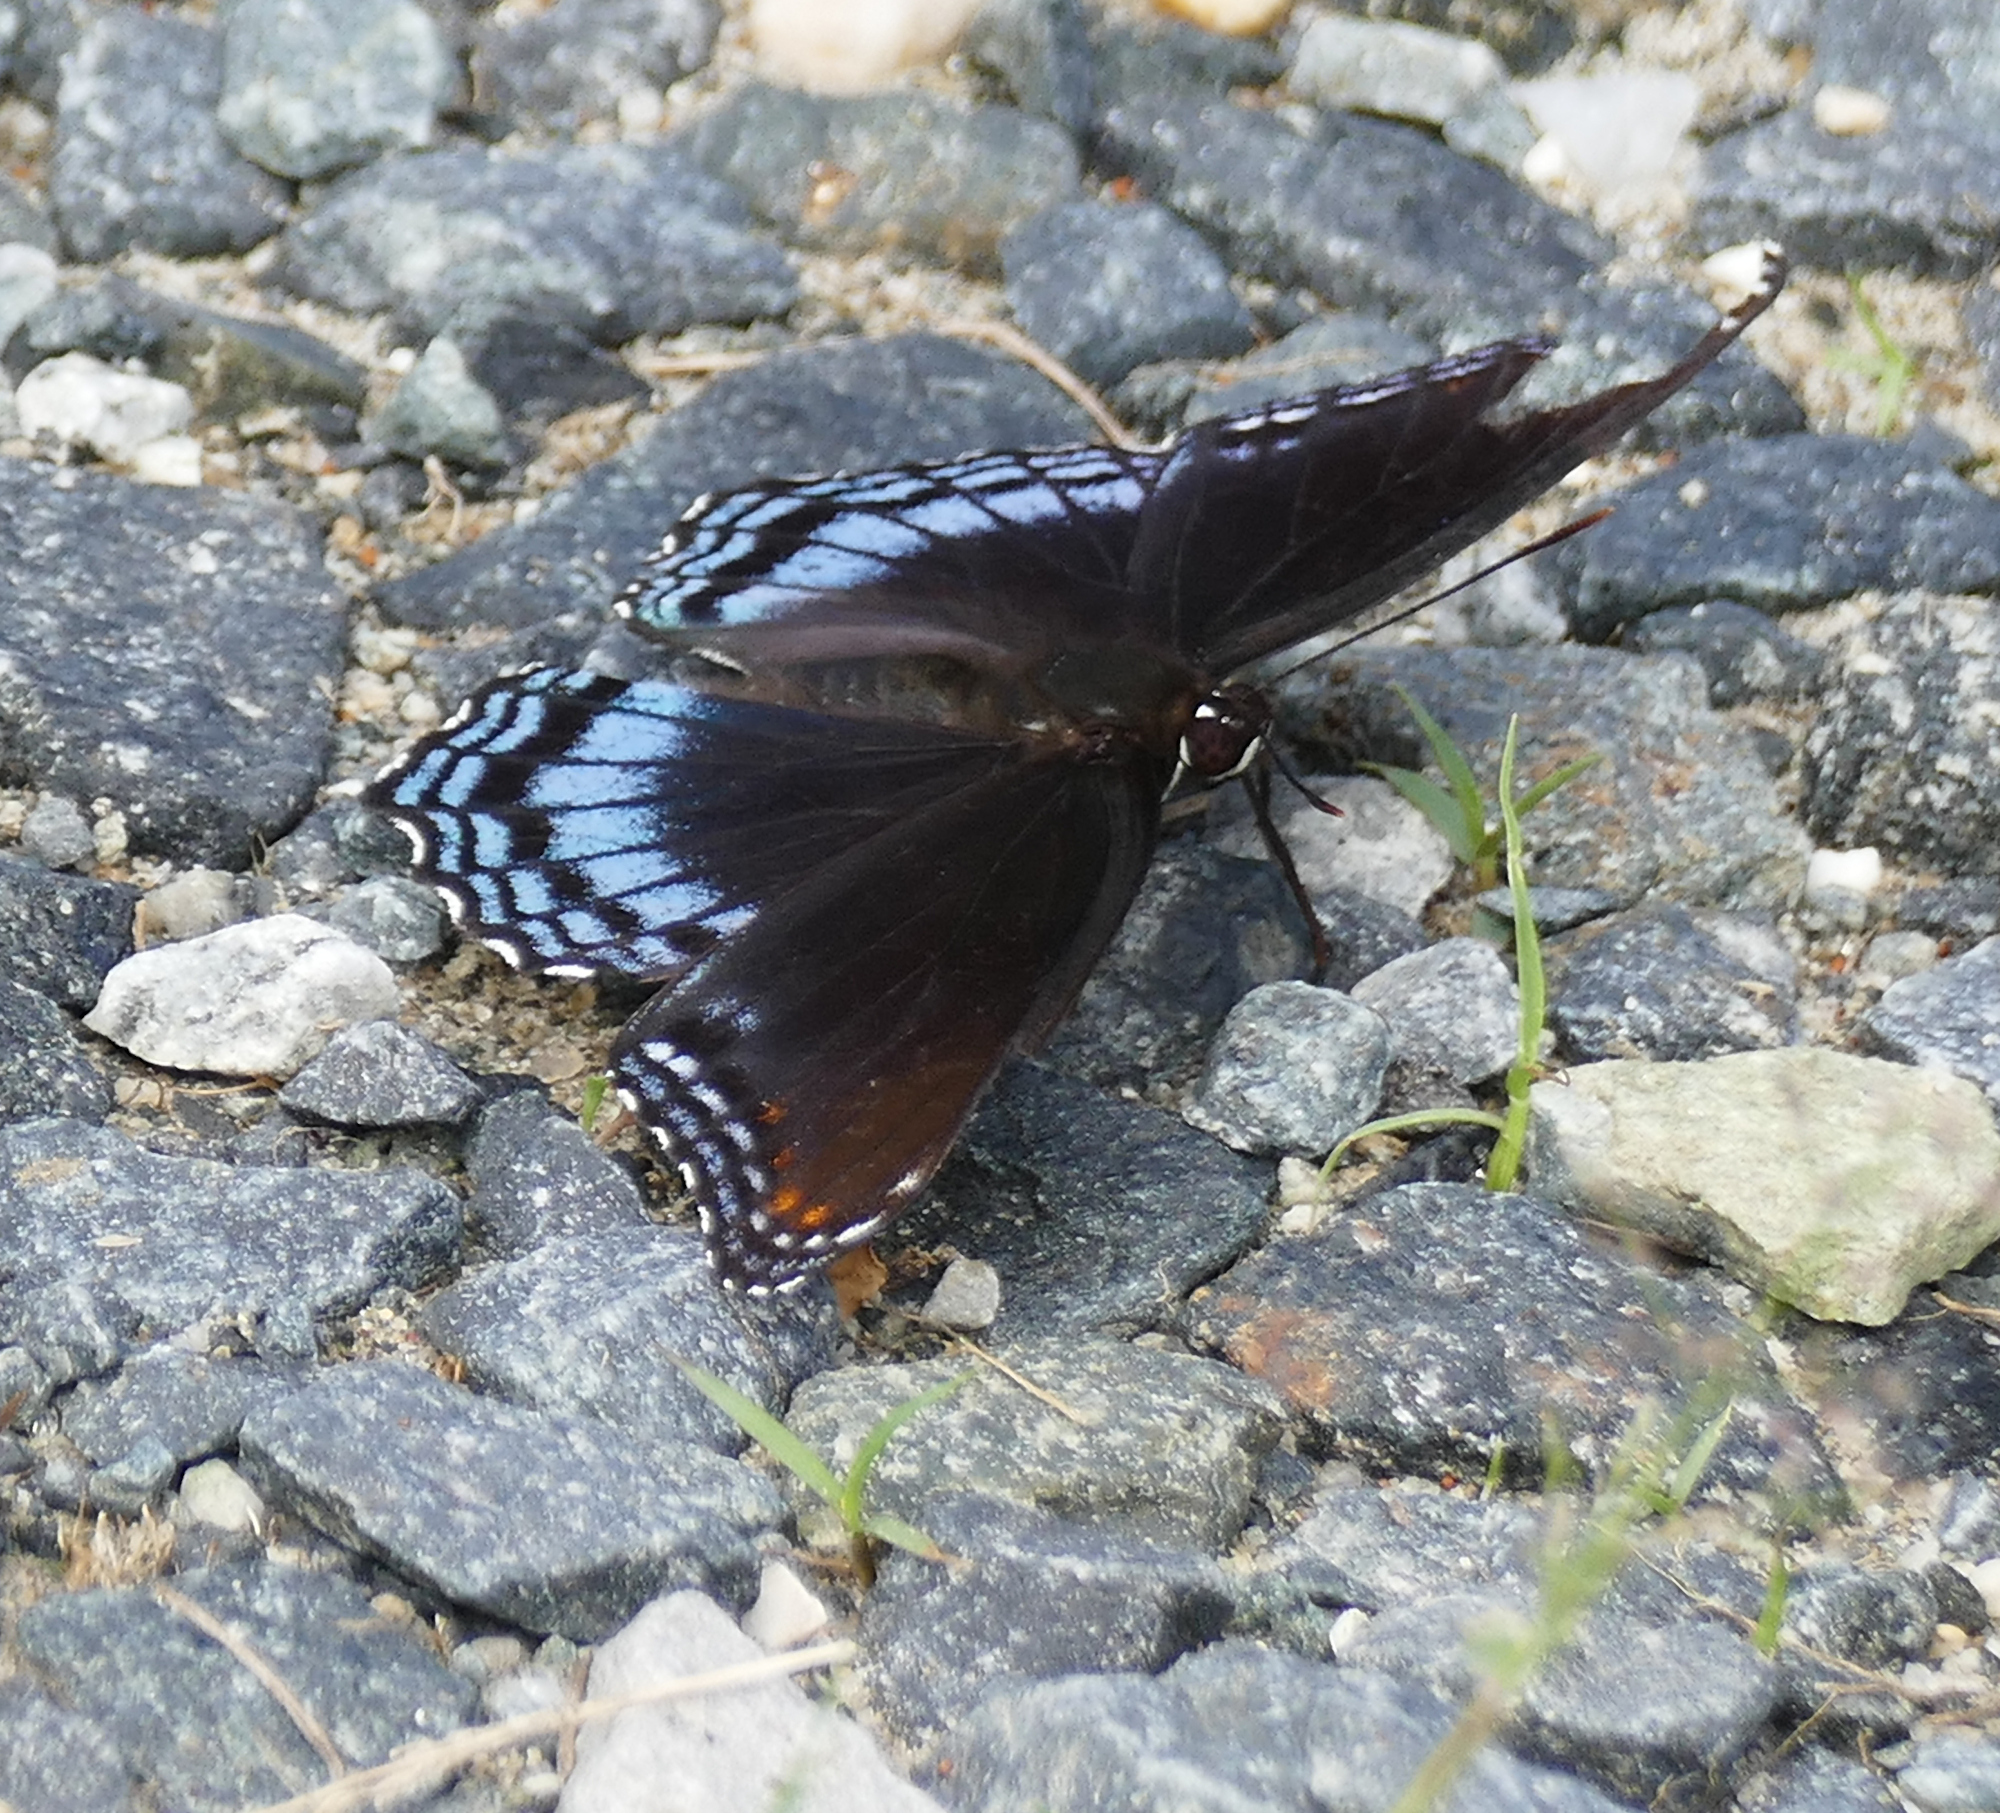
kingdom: Animalia
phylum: Arthropoda
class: Insecta
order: Lepidoptera
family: Nymphalidae
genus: Limenitis
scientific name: Limenitis astyanax
